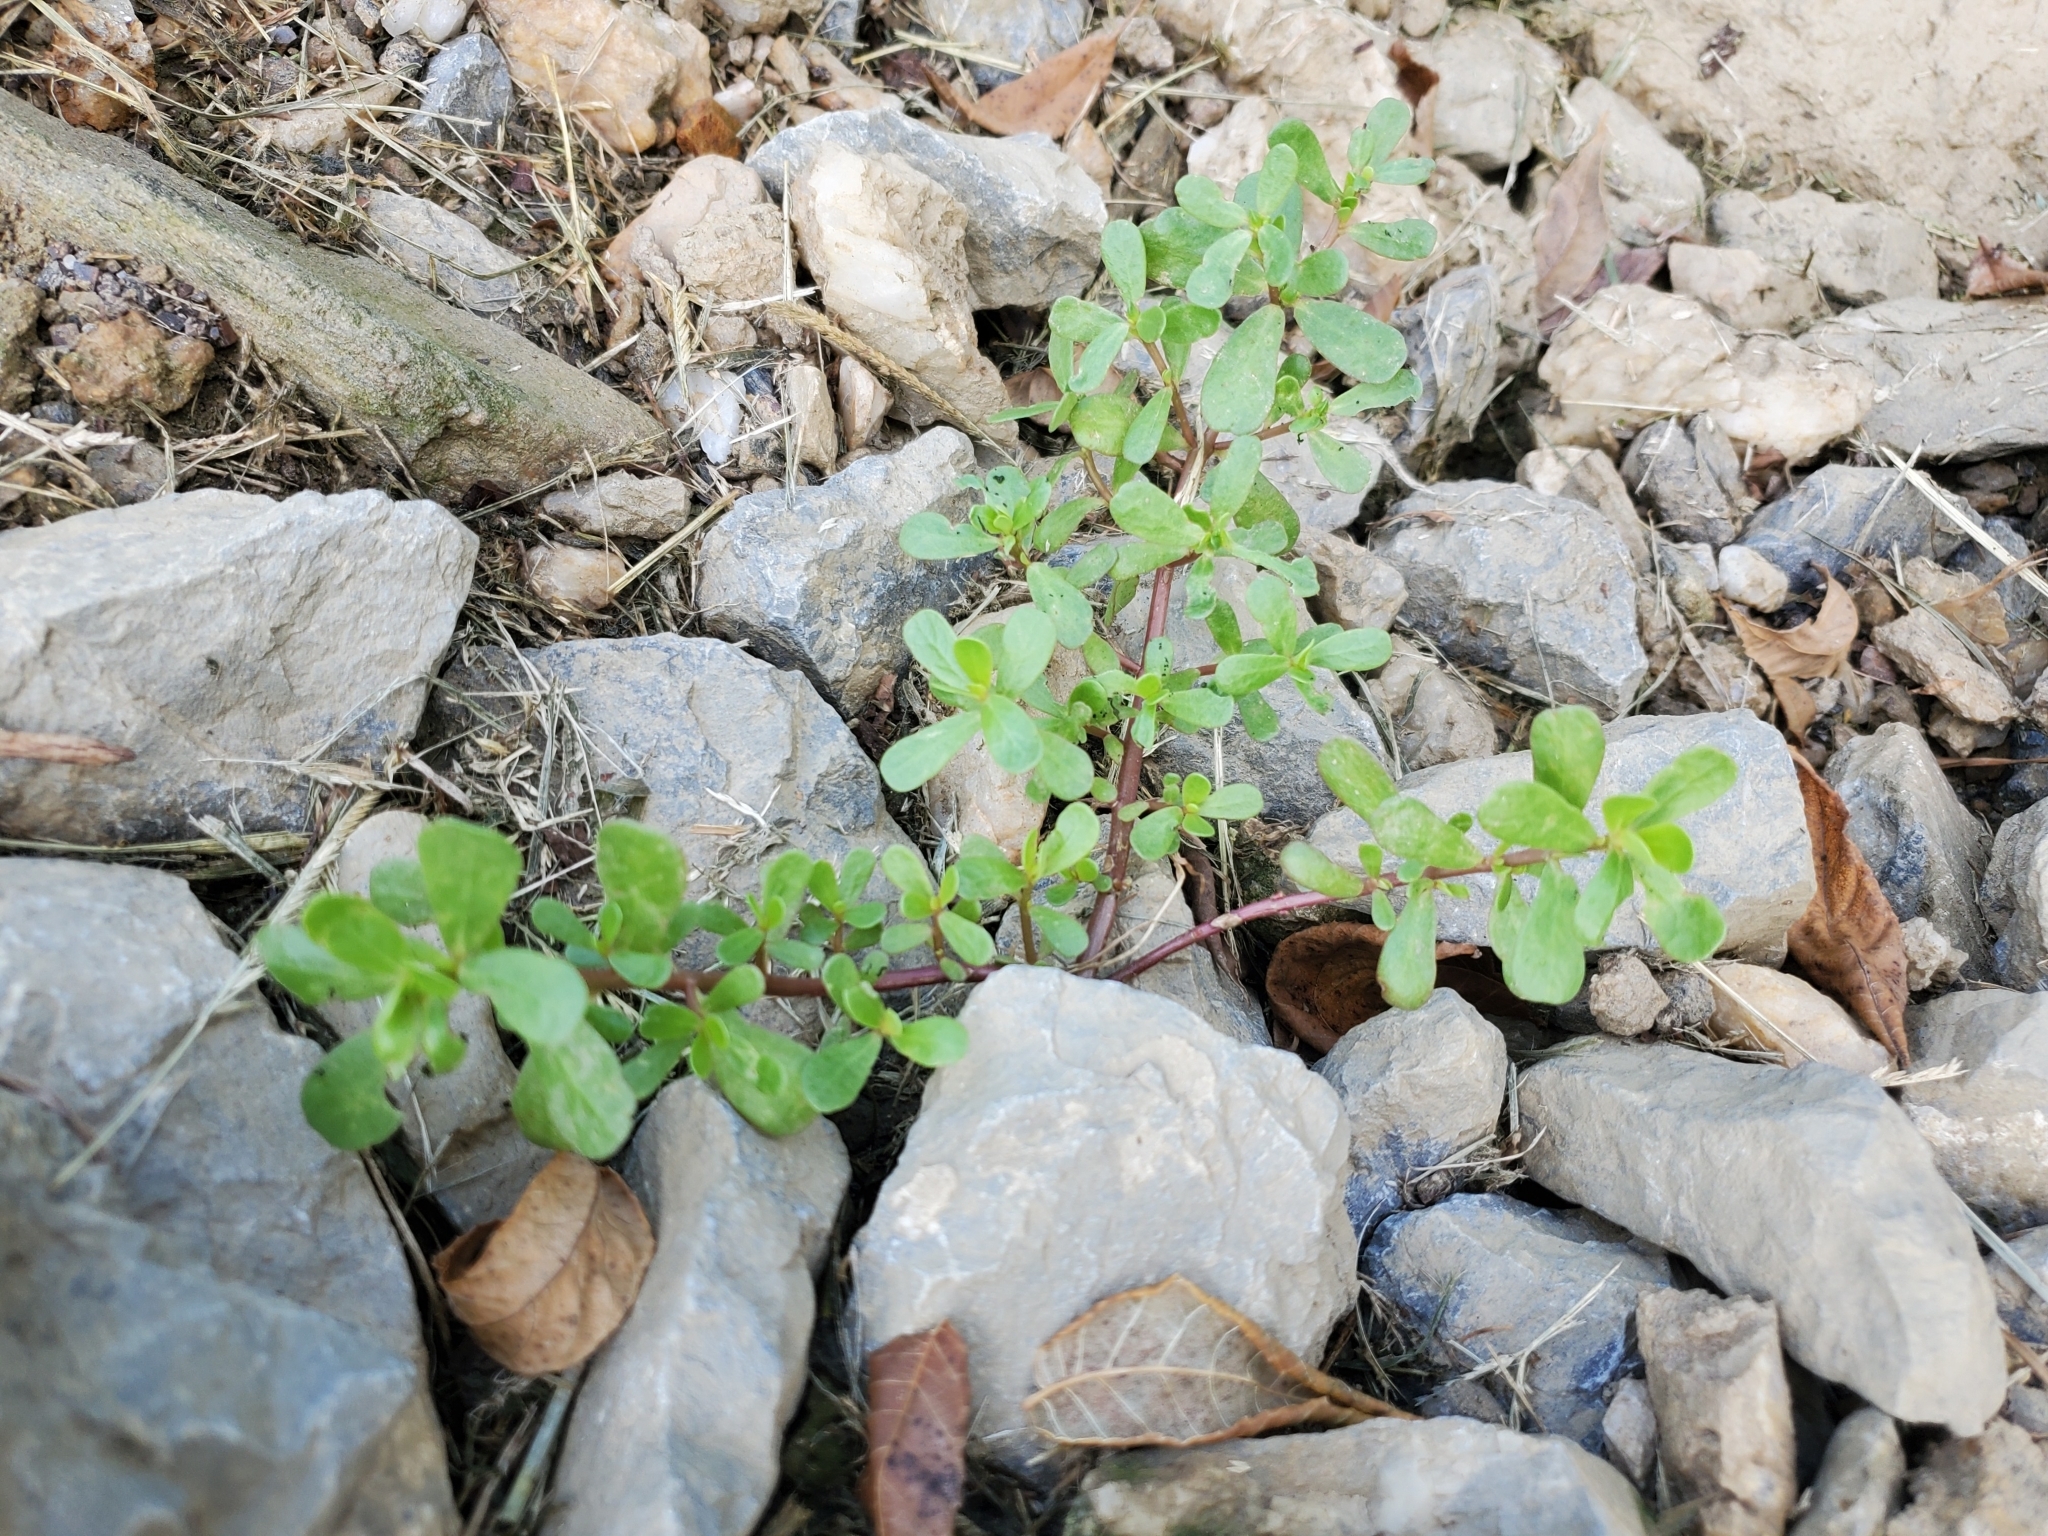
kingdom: Plantae
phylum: Tracheophyta
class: Magnoliopsida
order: Caryophyllales
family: Portulacaceae
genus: Portulaca
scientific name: Portulaca oleracea
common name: Common purslane
